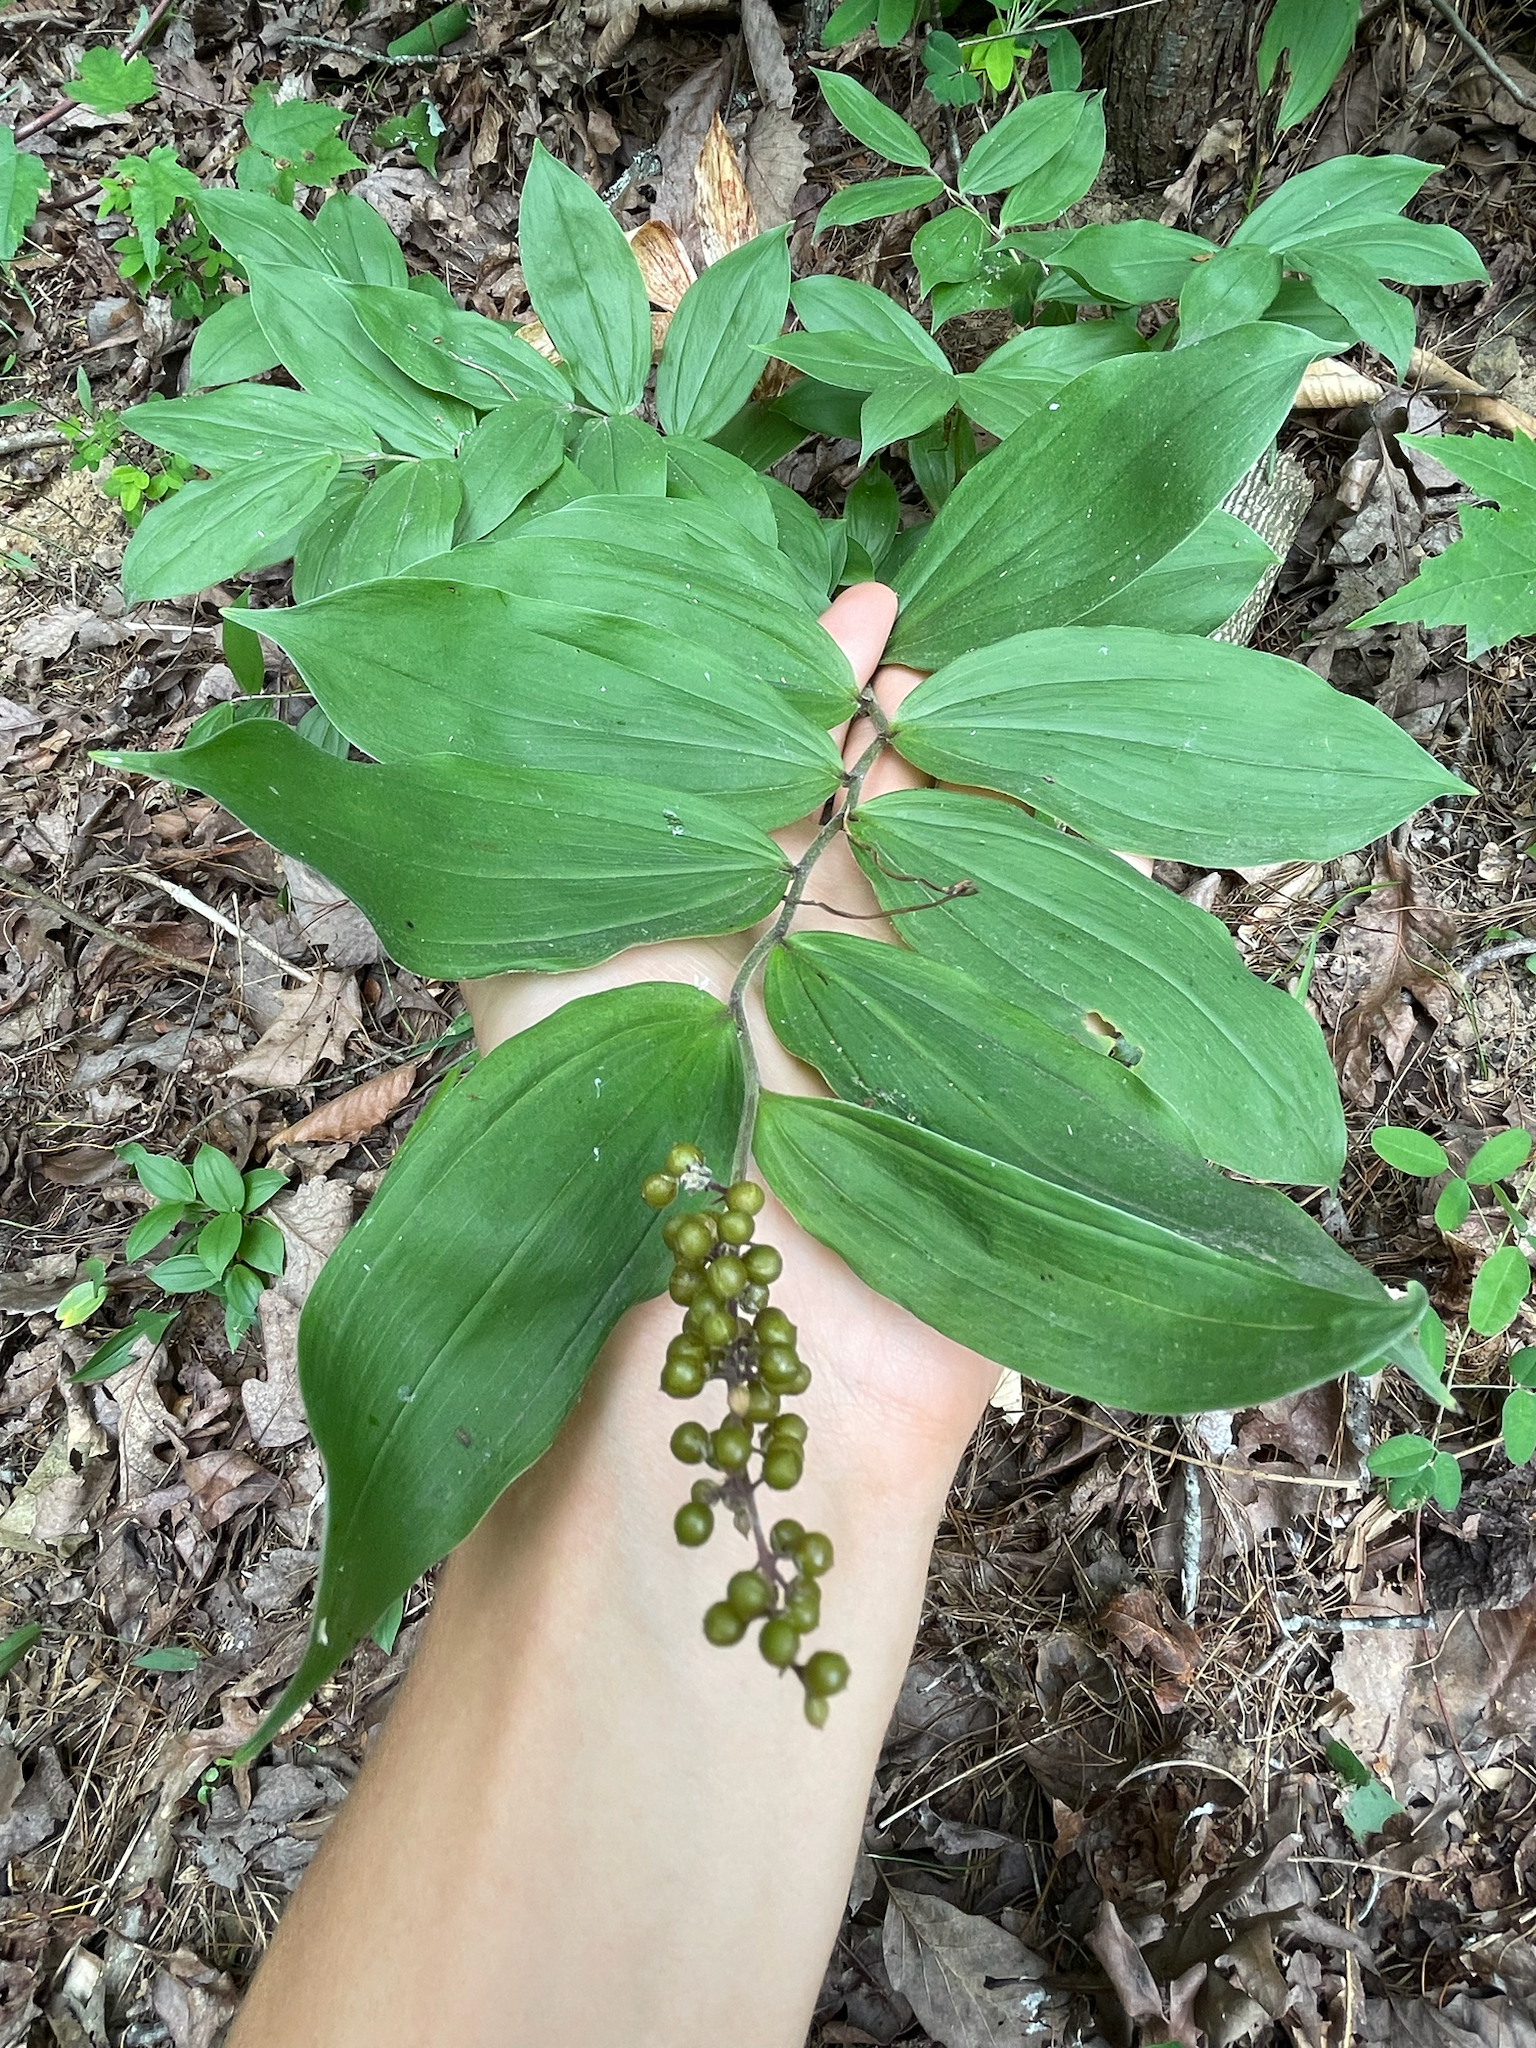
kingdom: Plantae
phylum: Tracheophyta
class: Liliopsida
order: Asparagales
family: Asparagaceae
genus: Maianthemum
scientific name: Maianthemum racemosum
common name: False spikenard
